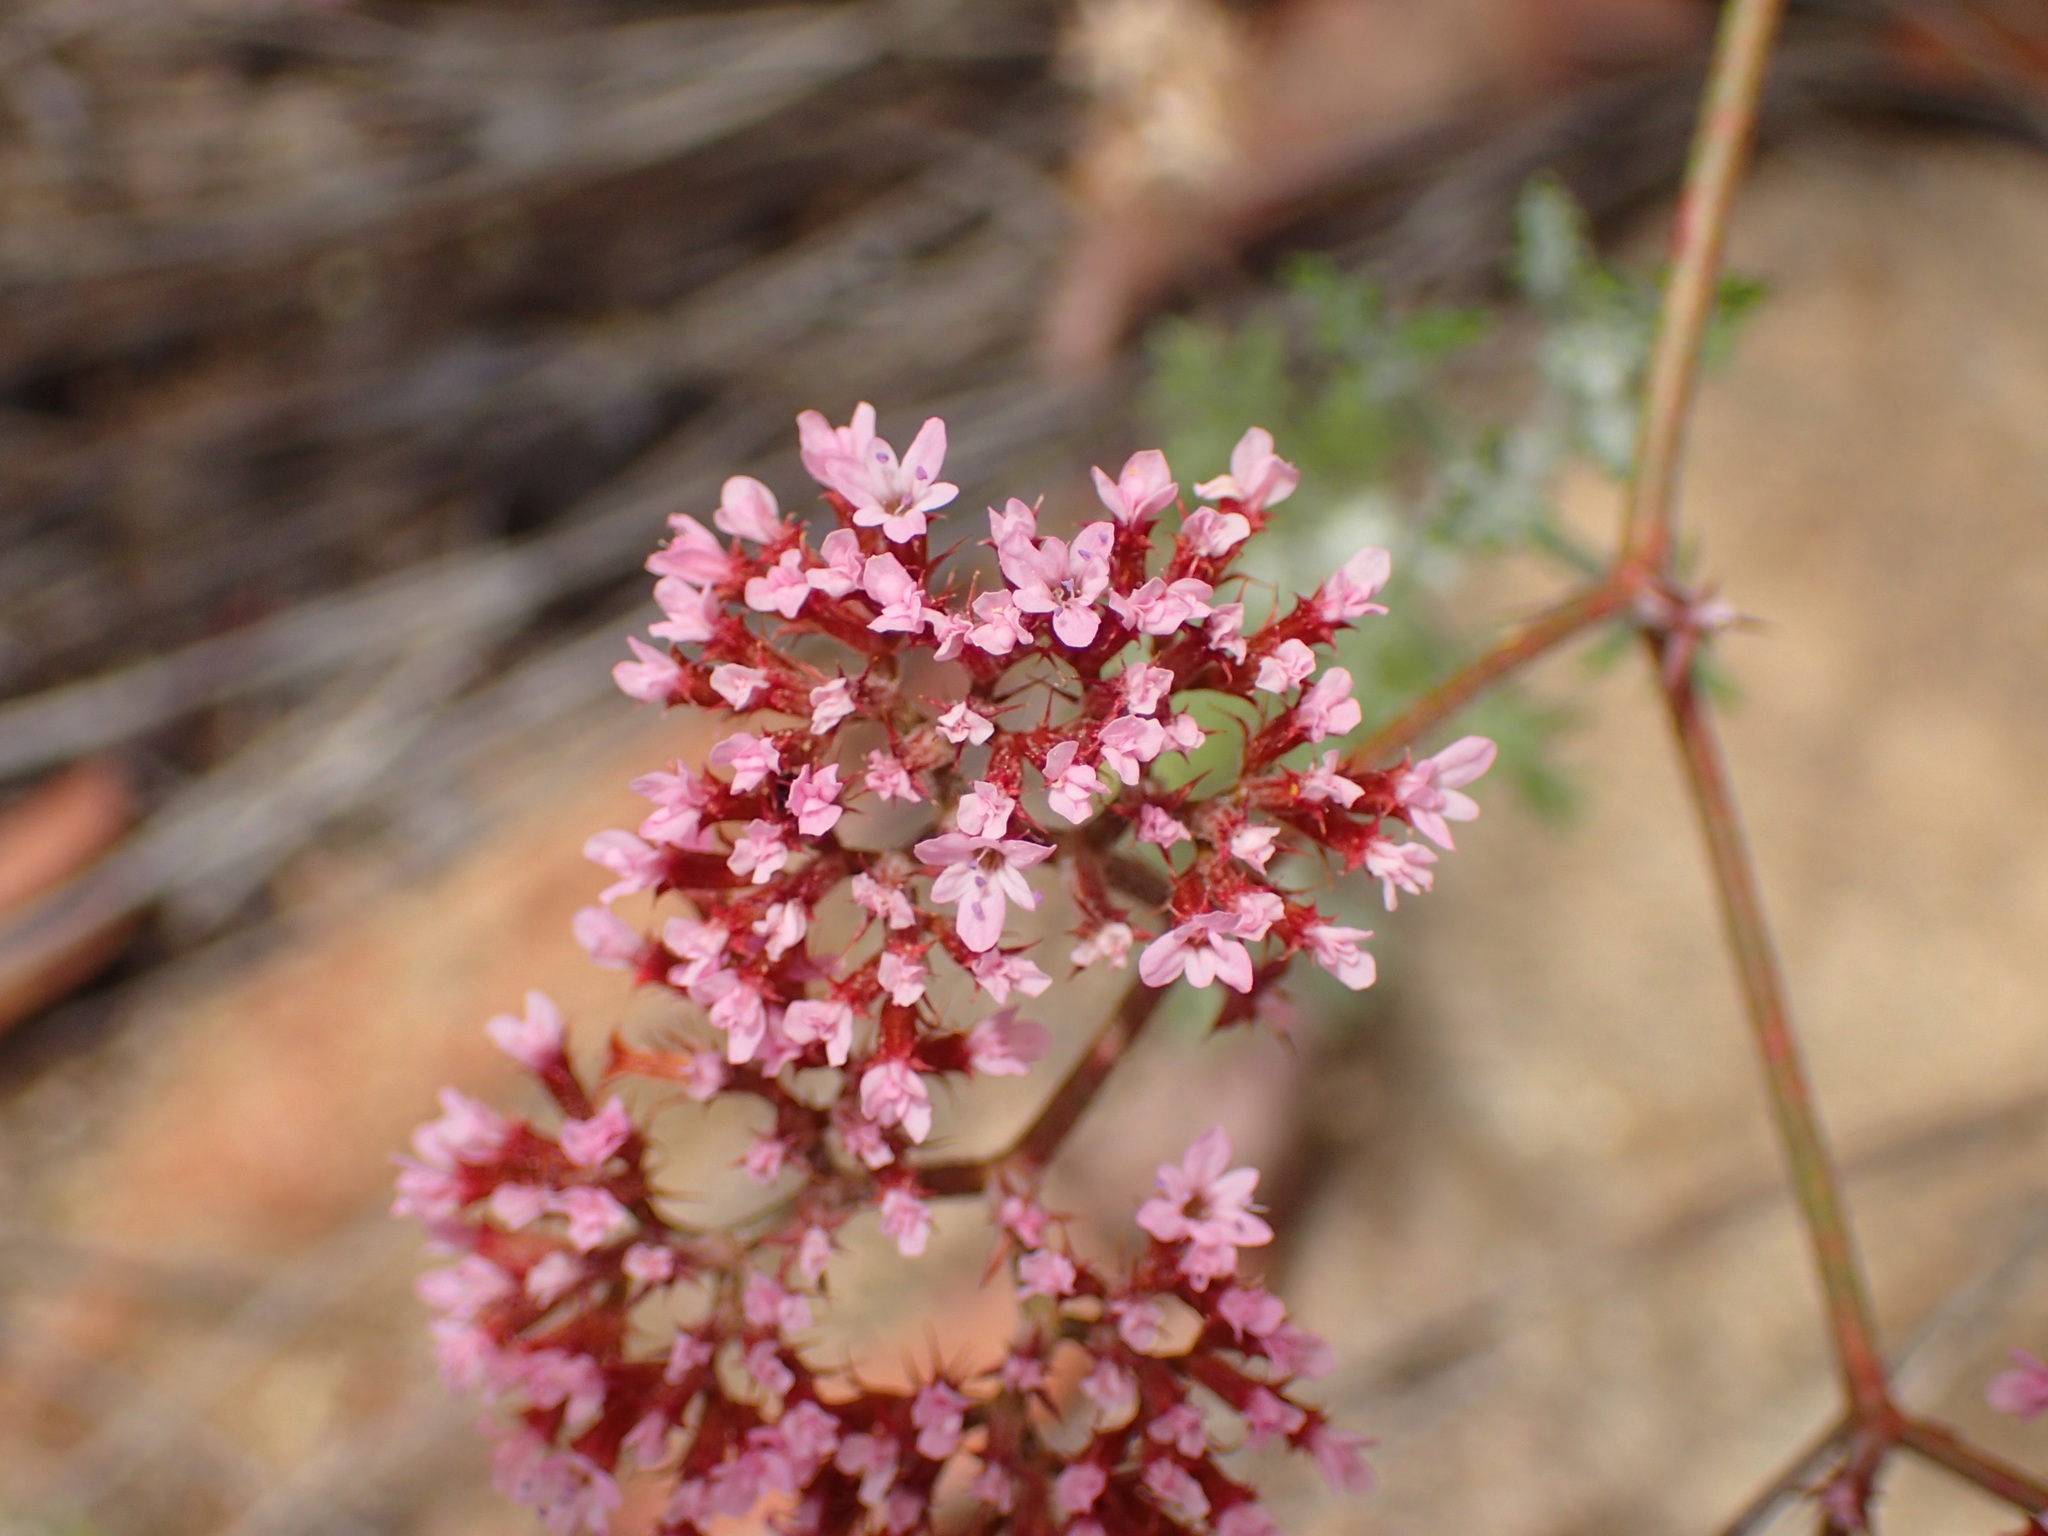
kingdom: Plantae
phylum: Tracheophyta
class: Magnoliopsida
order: Caryophyllales
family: Polygonaceae
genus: Chorizanthe
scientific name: Chorizanthe staticoides
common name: Turkish rugging
